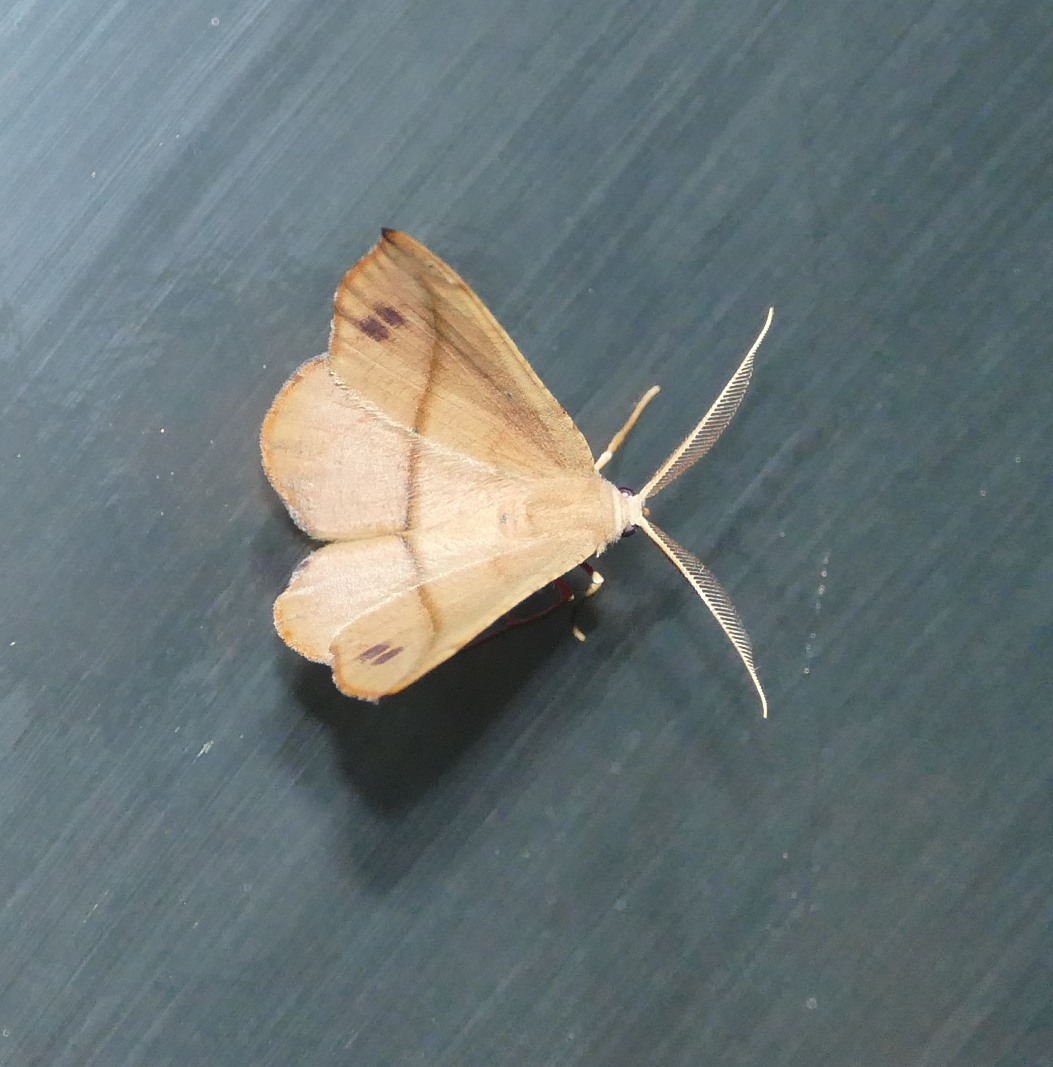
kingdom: Animalia
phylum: Arthropoda
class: Insecta
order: Lepidoptera
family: Geometridae
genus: Patalene
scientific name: Patalene olyzonaria
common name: Juniper geometer moth
